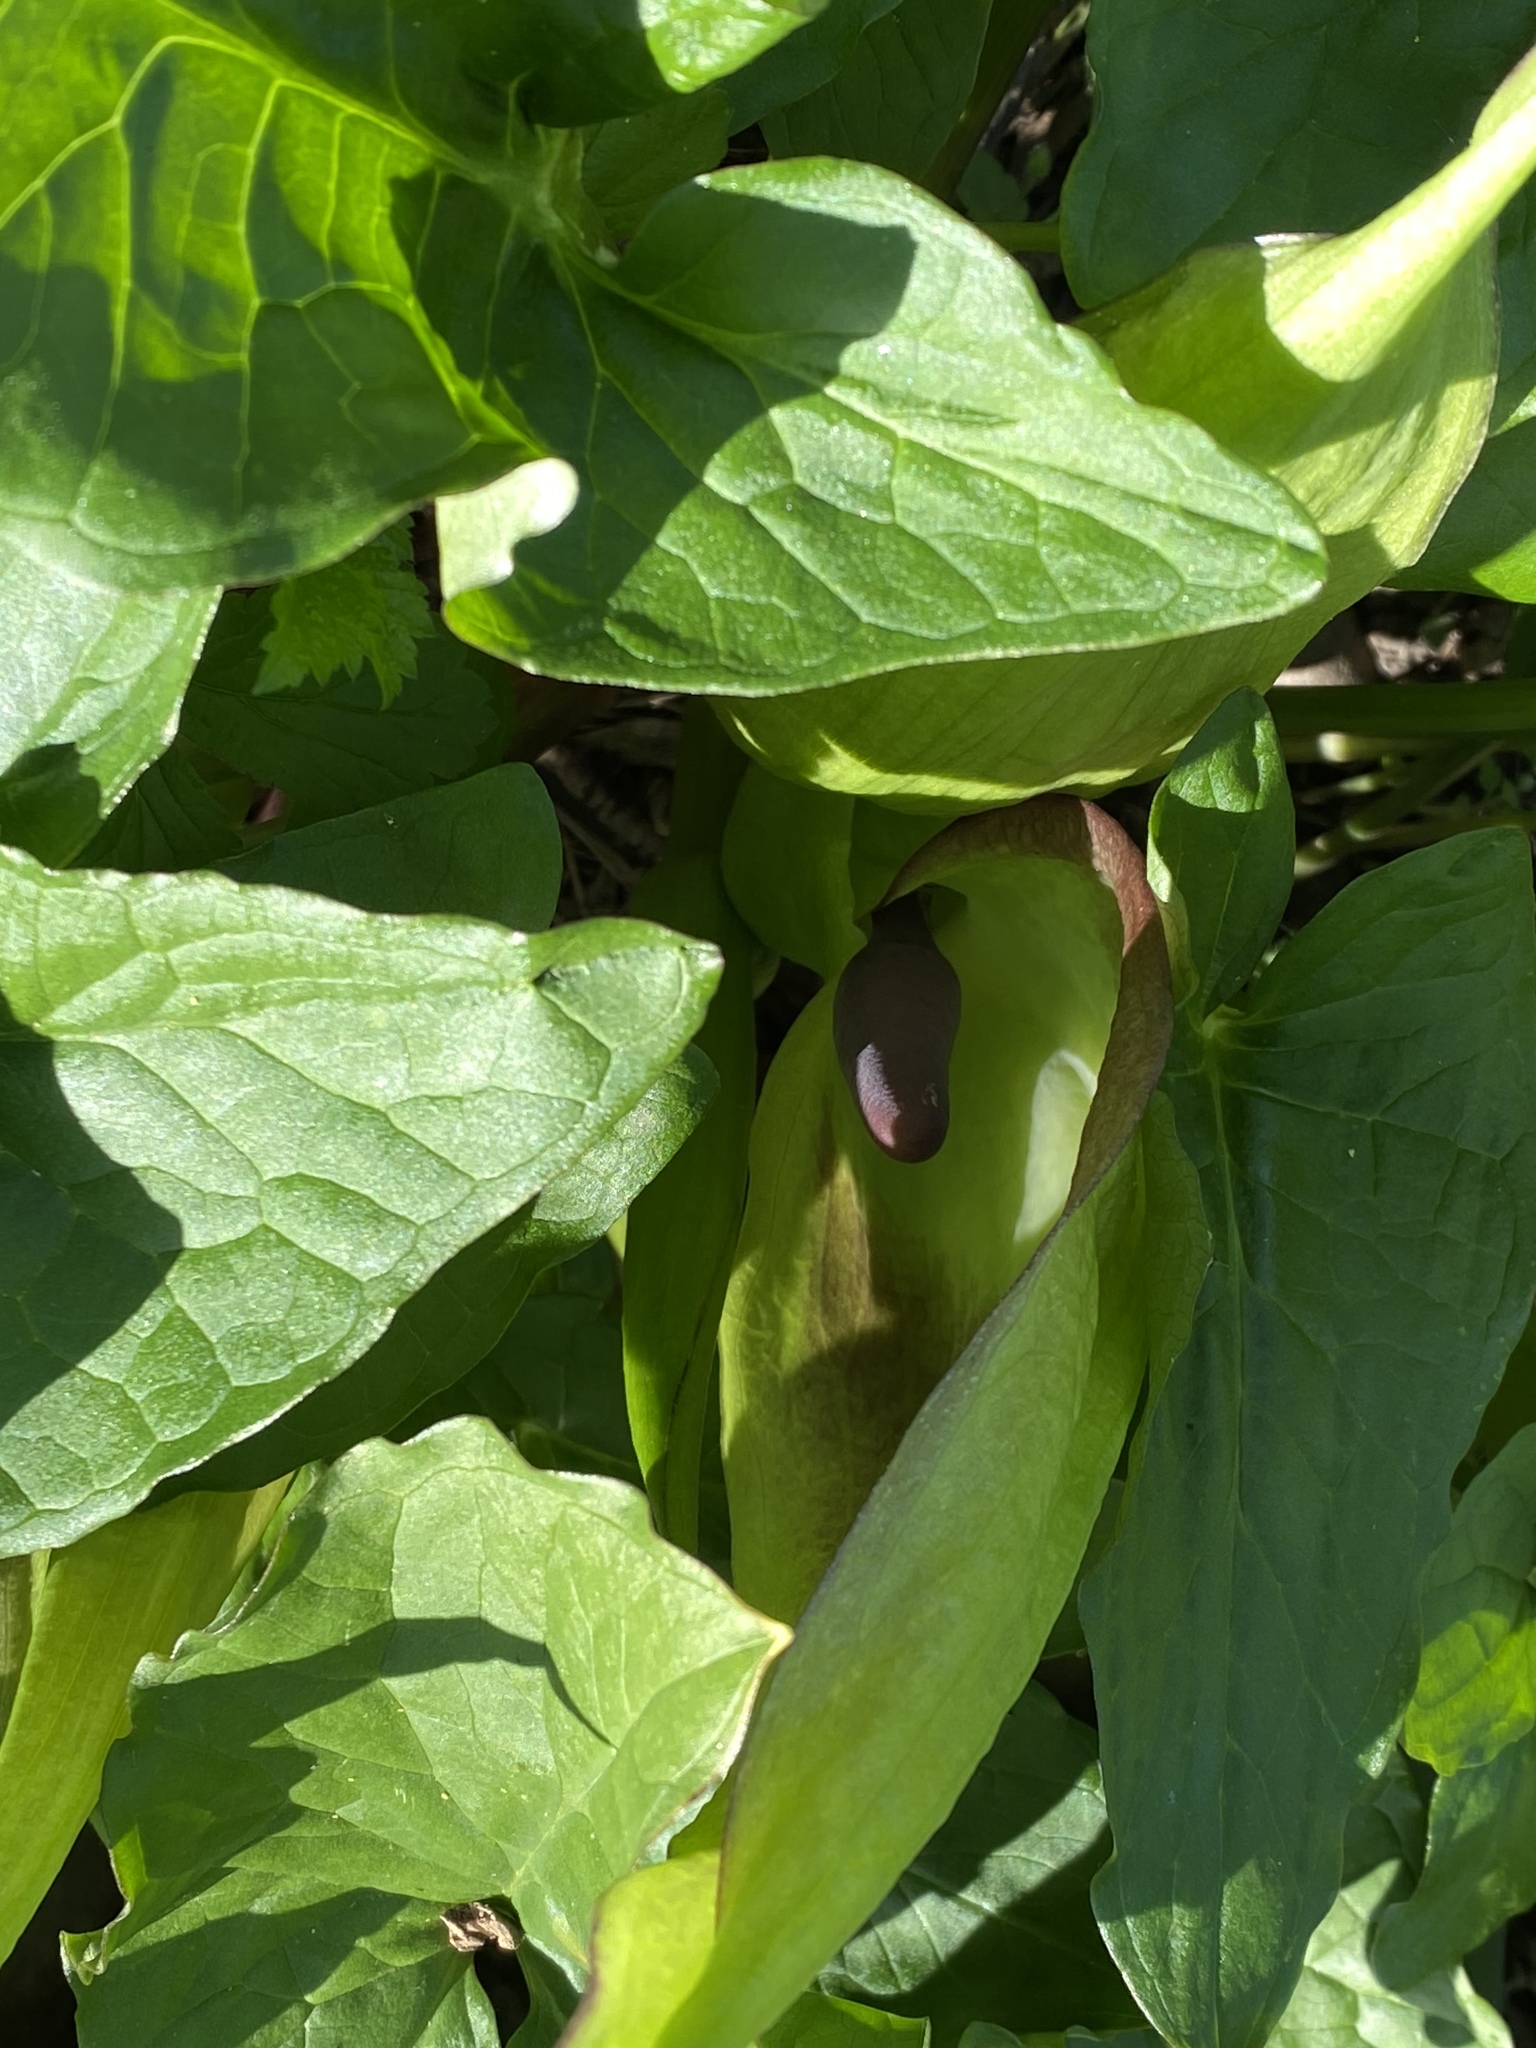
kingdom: Plantae
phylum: Tracheophyta
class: Liliopsida
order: Alismatales
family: Araceae
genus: Arum
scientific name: Arum maculatum
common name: Lords-and-ladies
